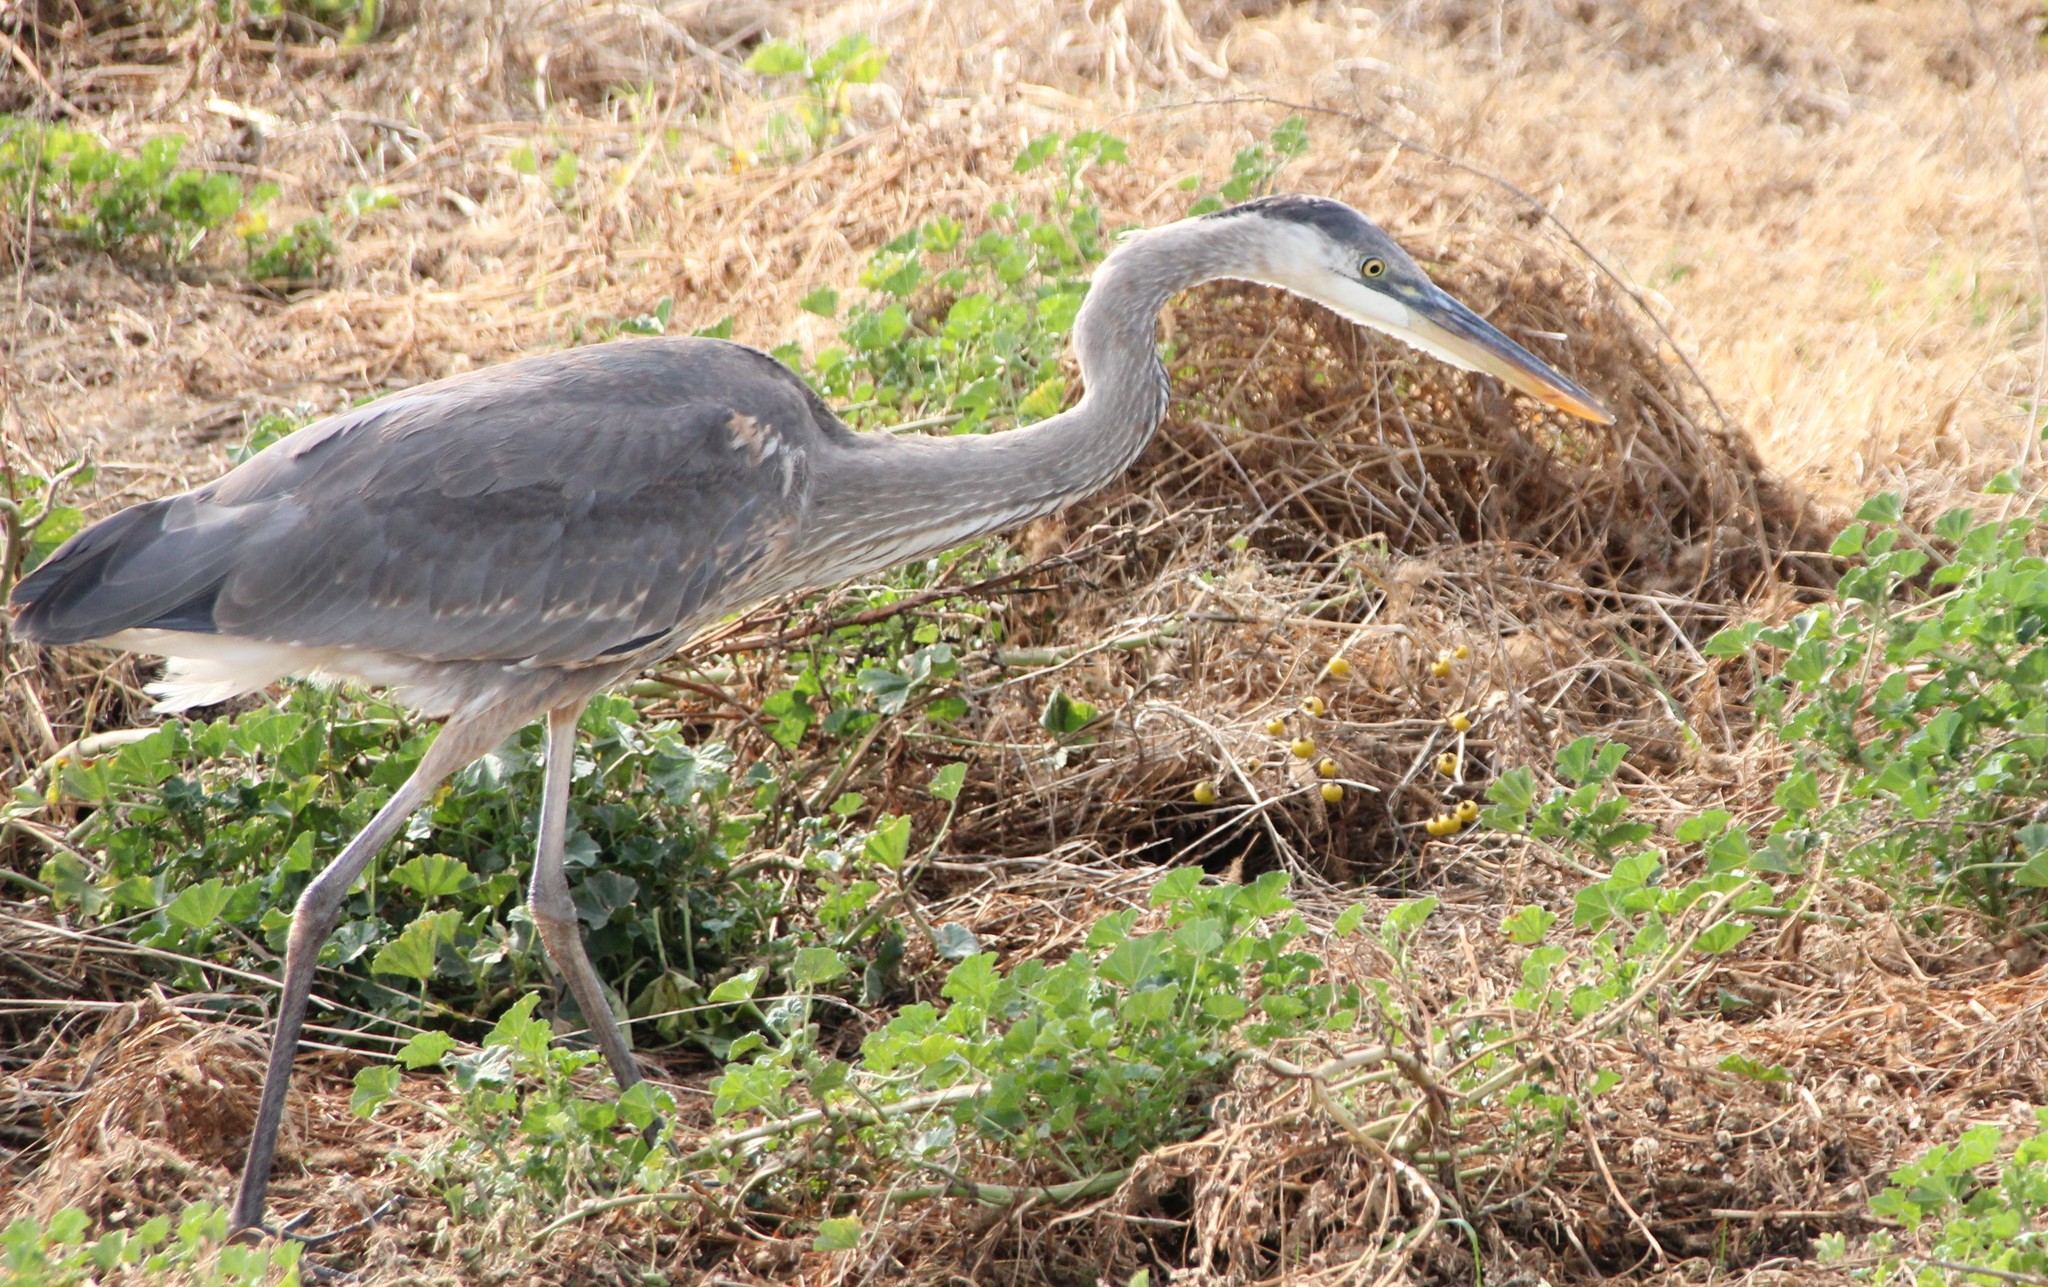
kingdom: Animalia
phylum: Chordata
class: Aves
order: Pelecaniformes
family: Ardeidae
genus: Ardea
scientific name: Ardea herodias
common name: Great blue heron
